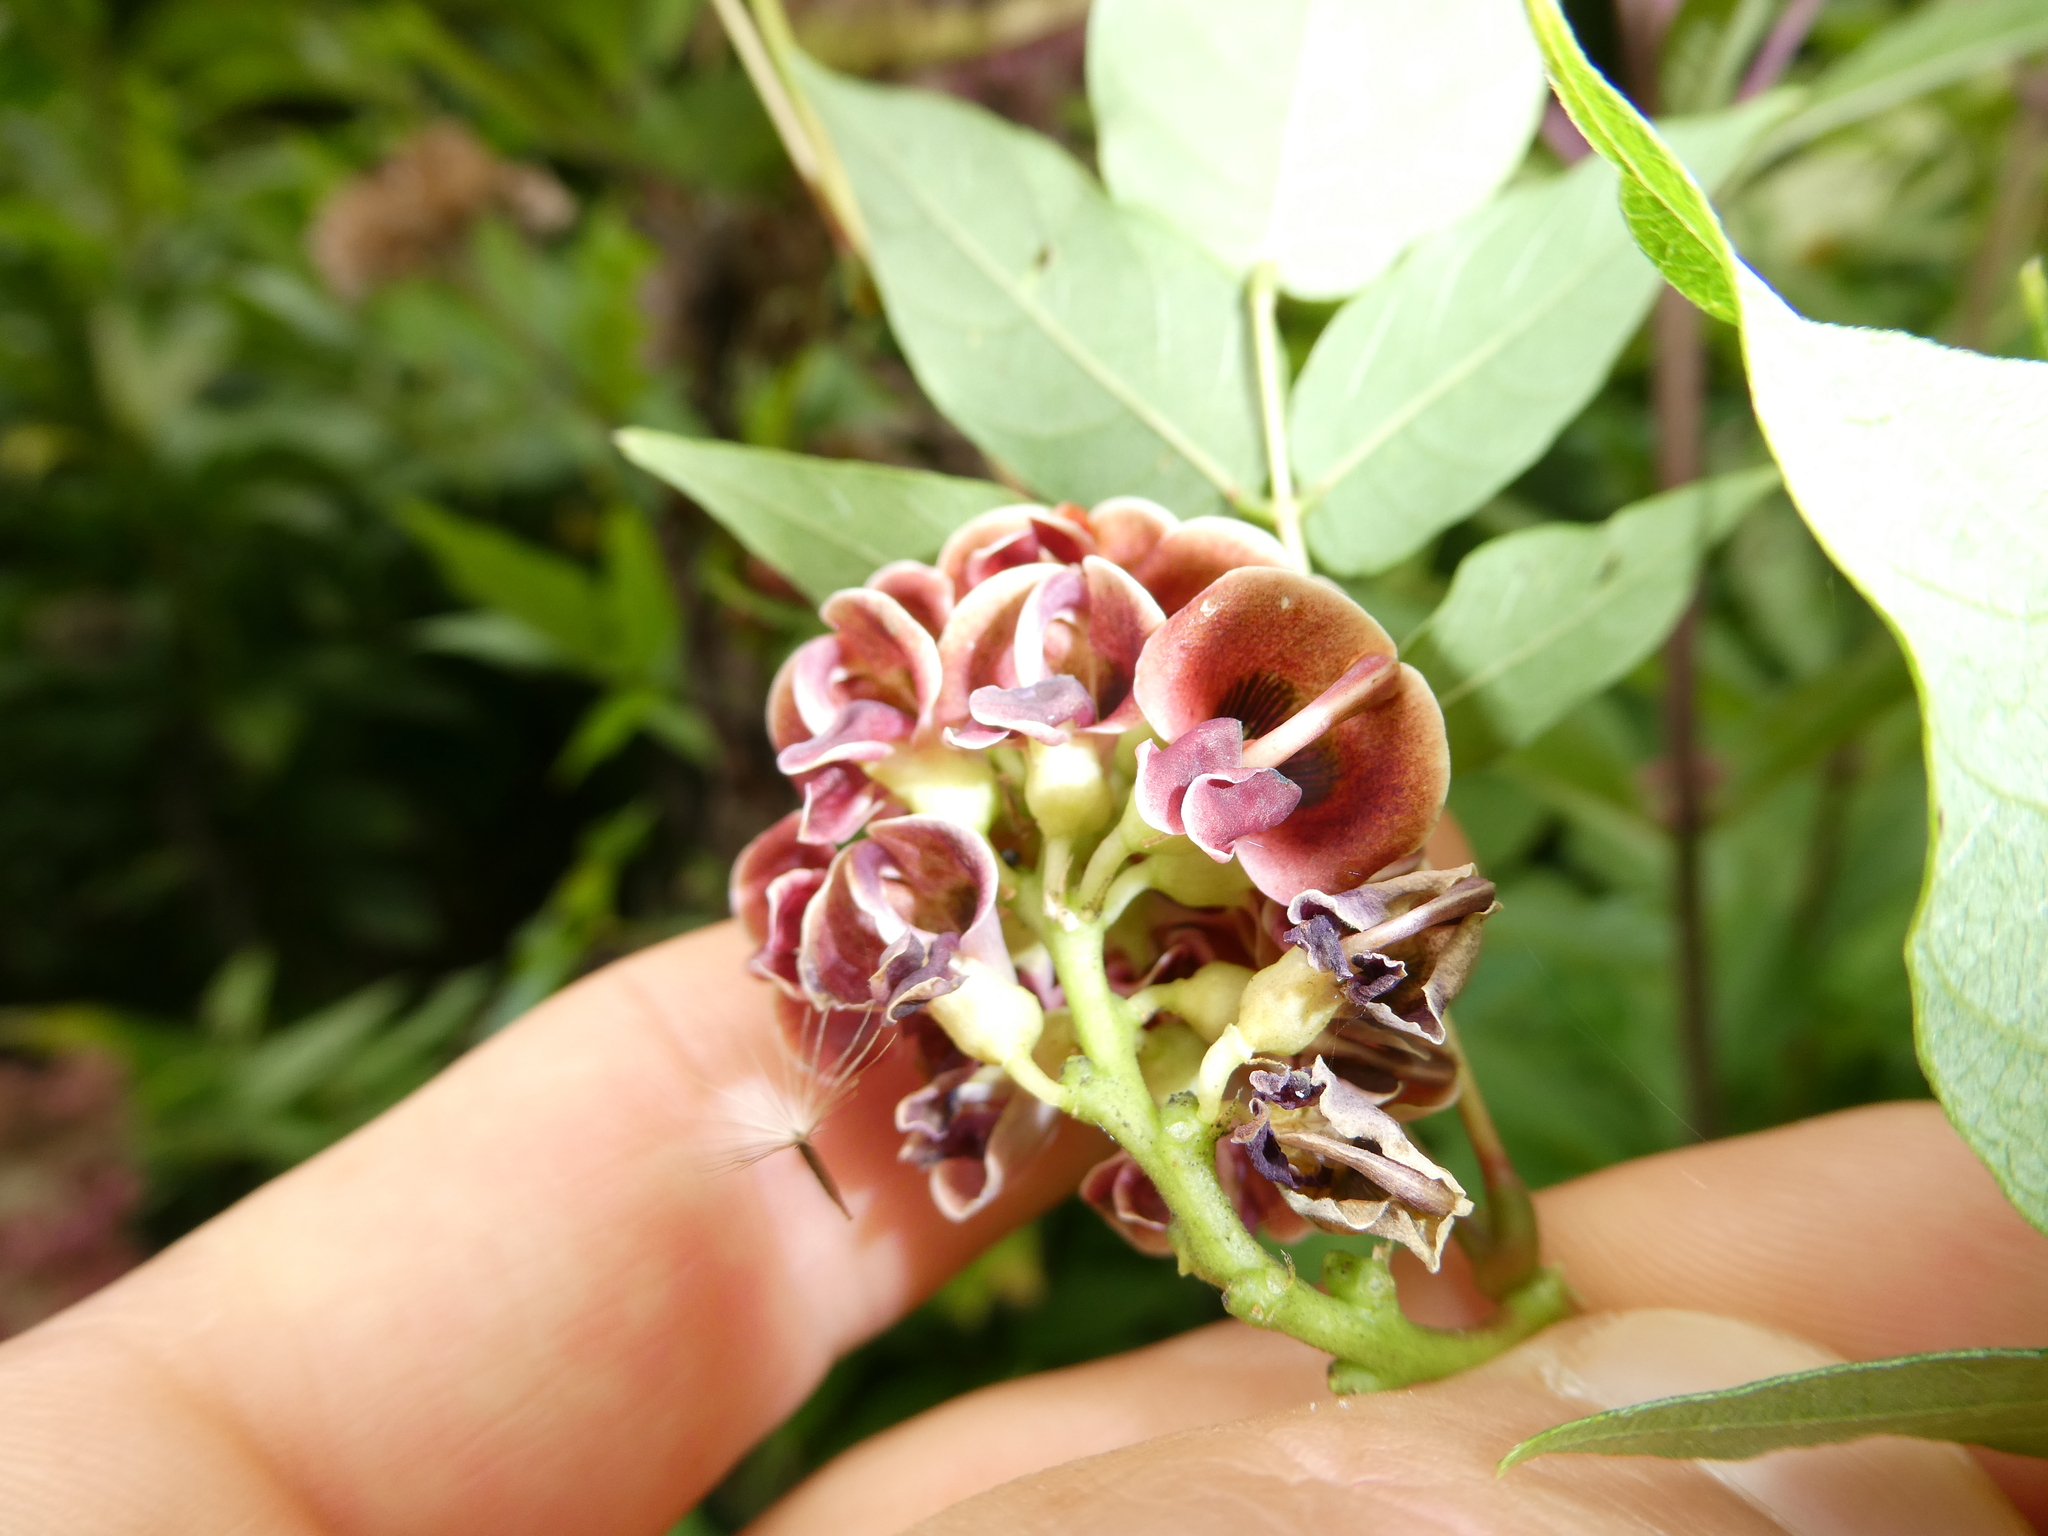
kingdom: Plantae
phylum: Tracheophyta
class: Magnoliopsida
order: Fabales
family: Fabaceae
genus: Apios
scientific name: Apios americana
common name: American potato-bean
